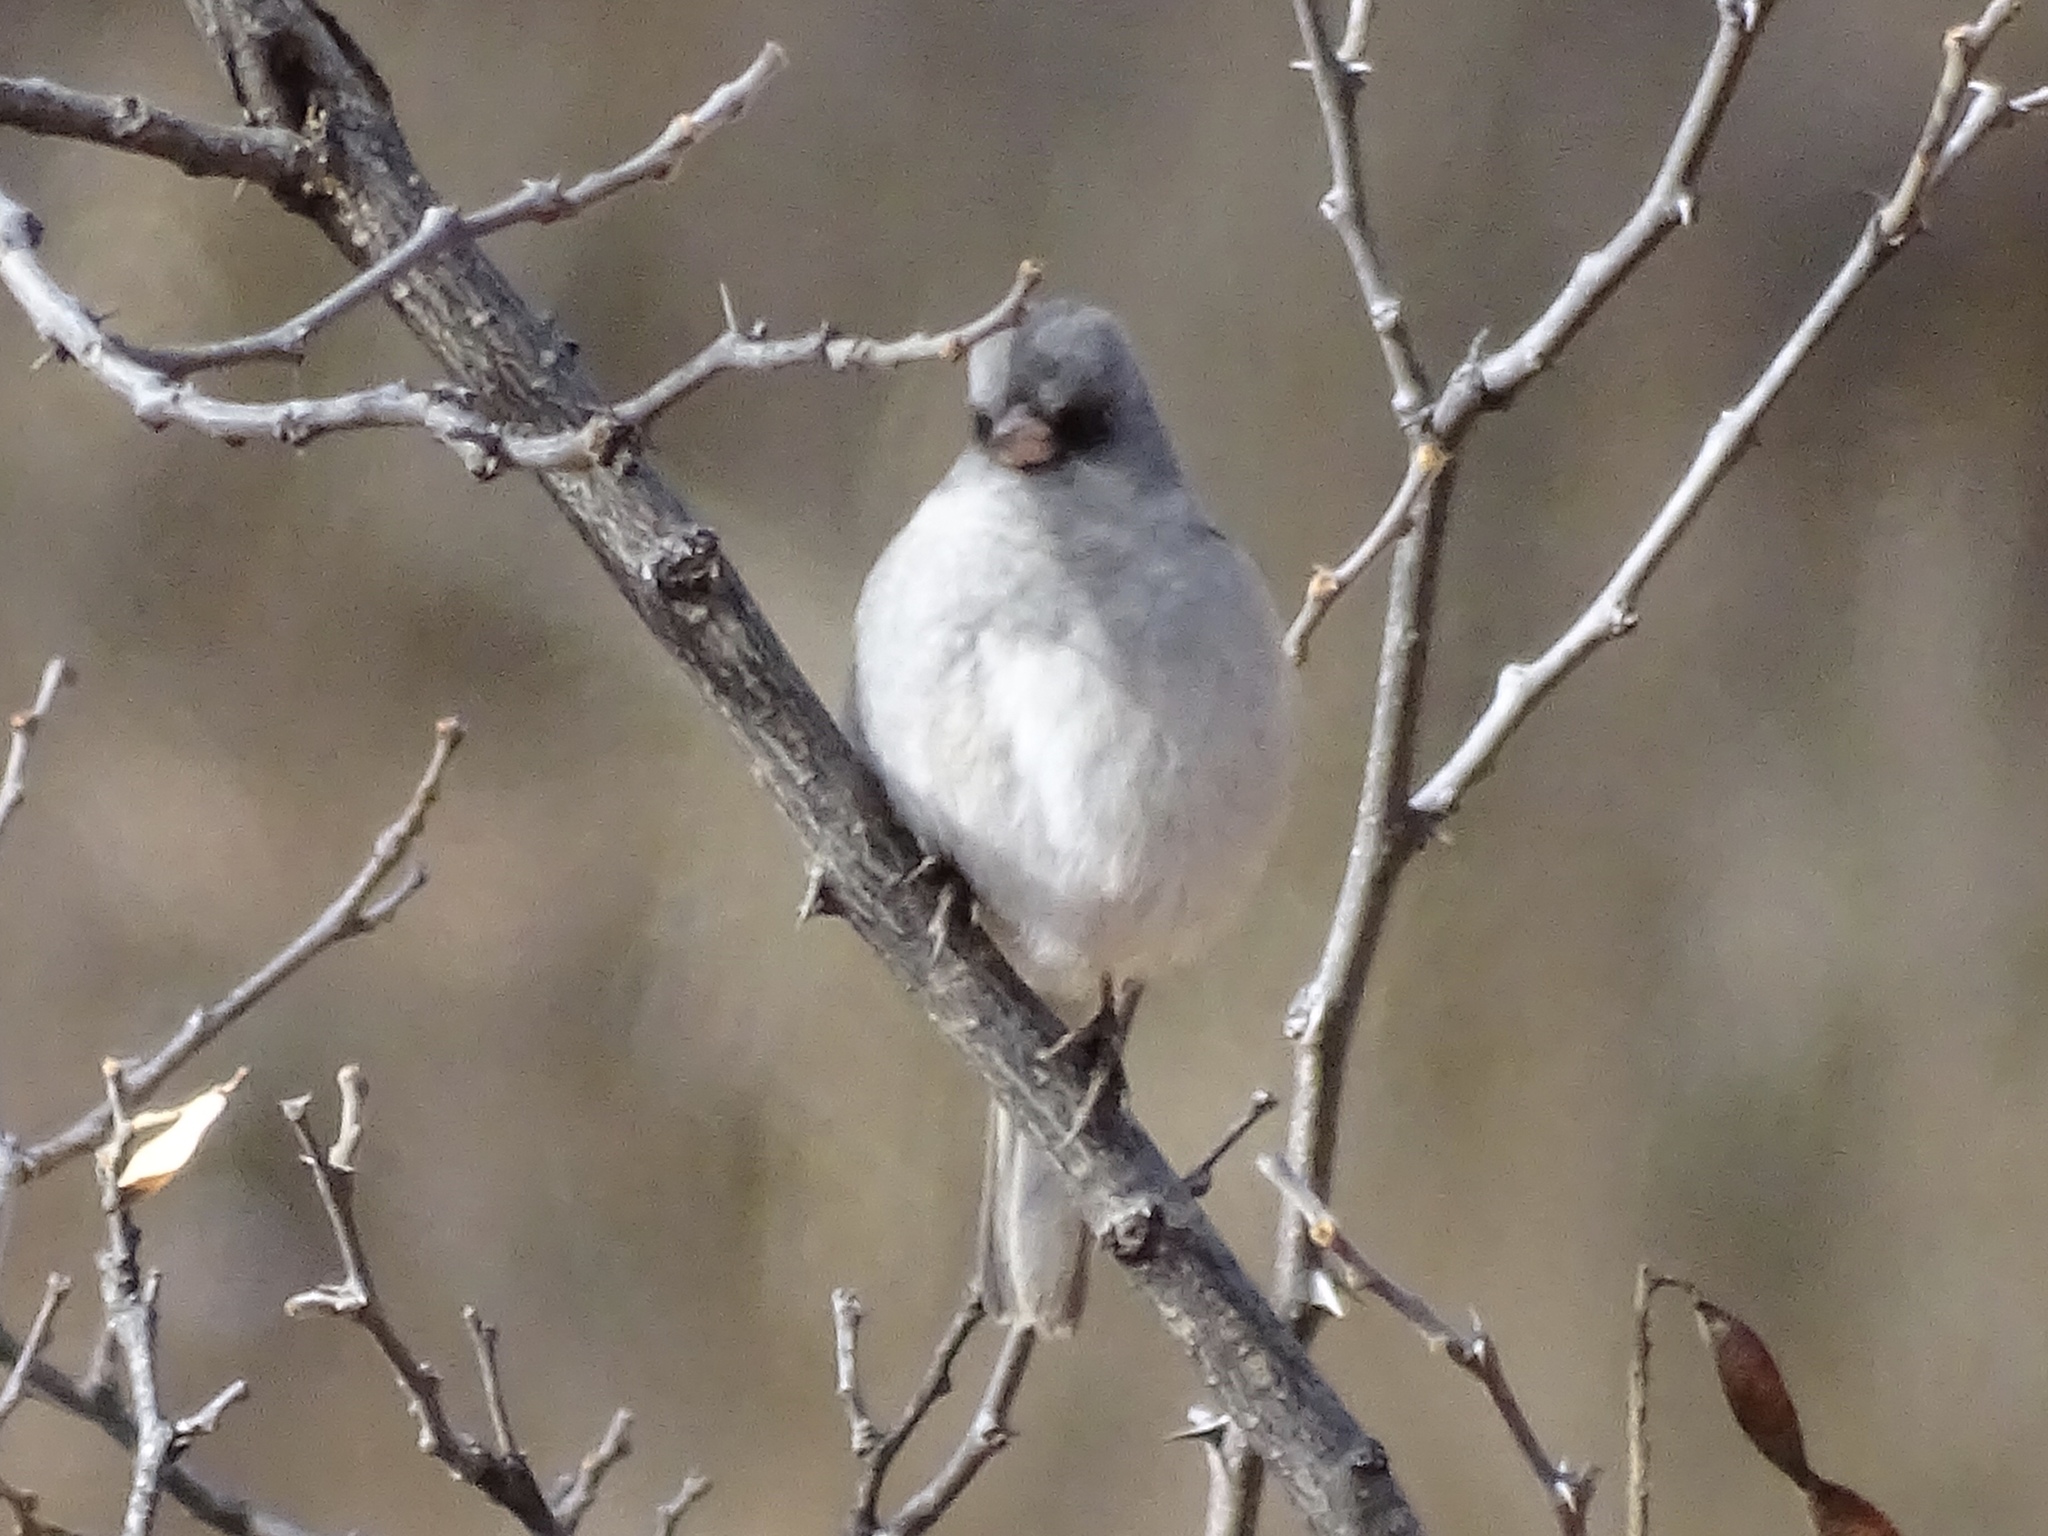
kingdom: Animalia
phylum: Chordata
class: Aves
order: Passeriformes
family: Passerellidae
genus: Junco
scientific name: Junco hyemalis
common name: Dark-eyed junco
